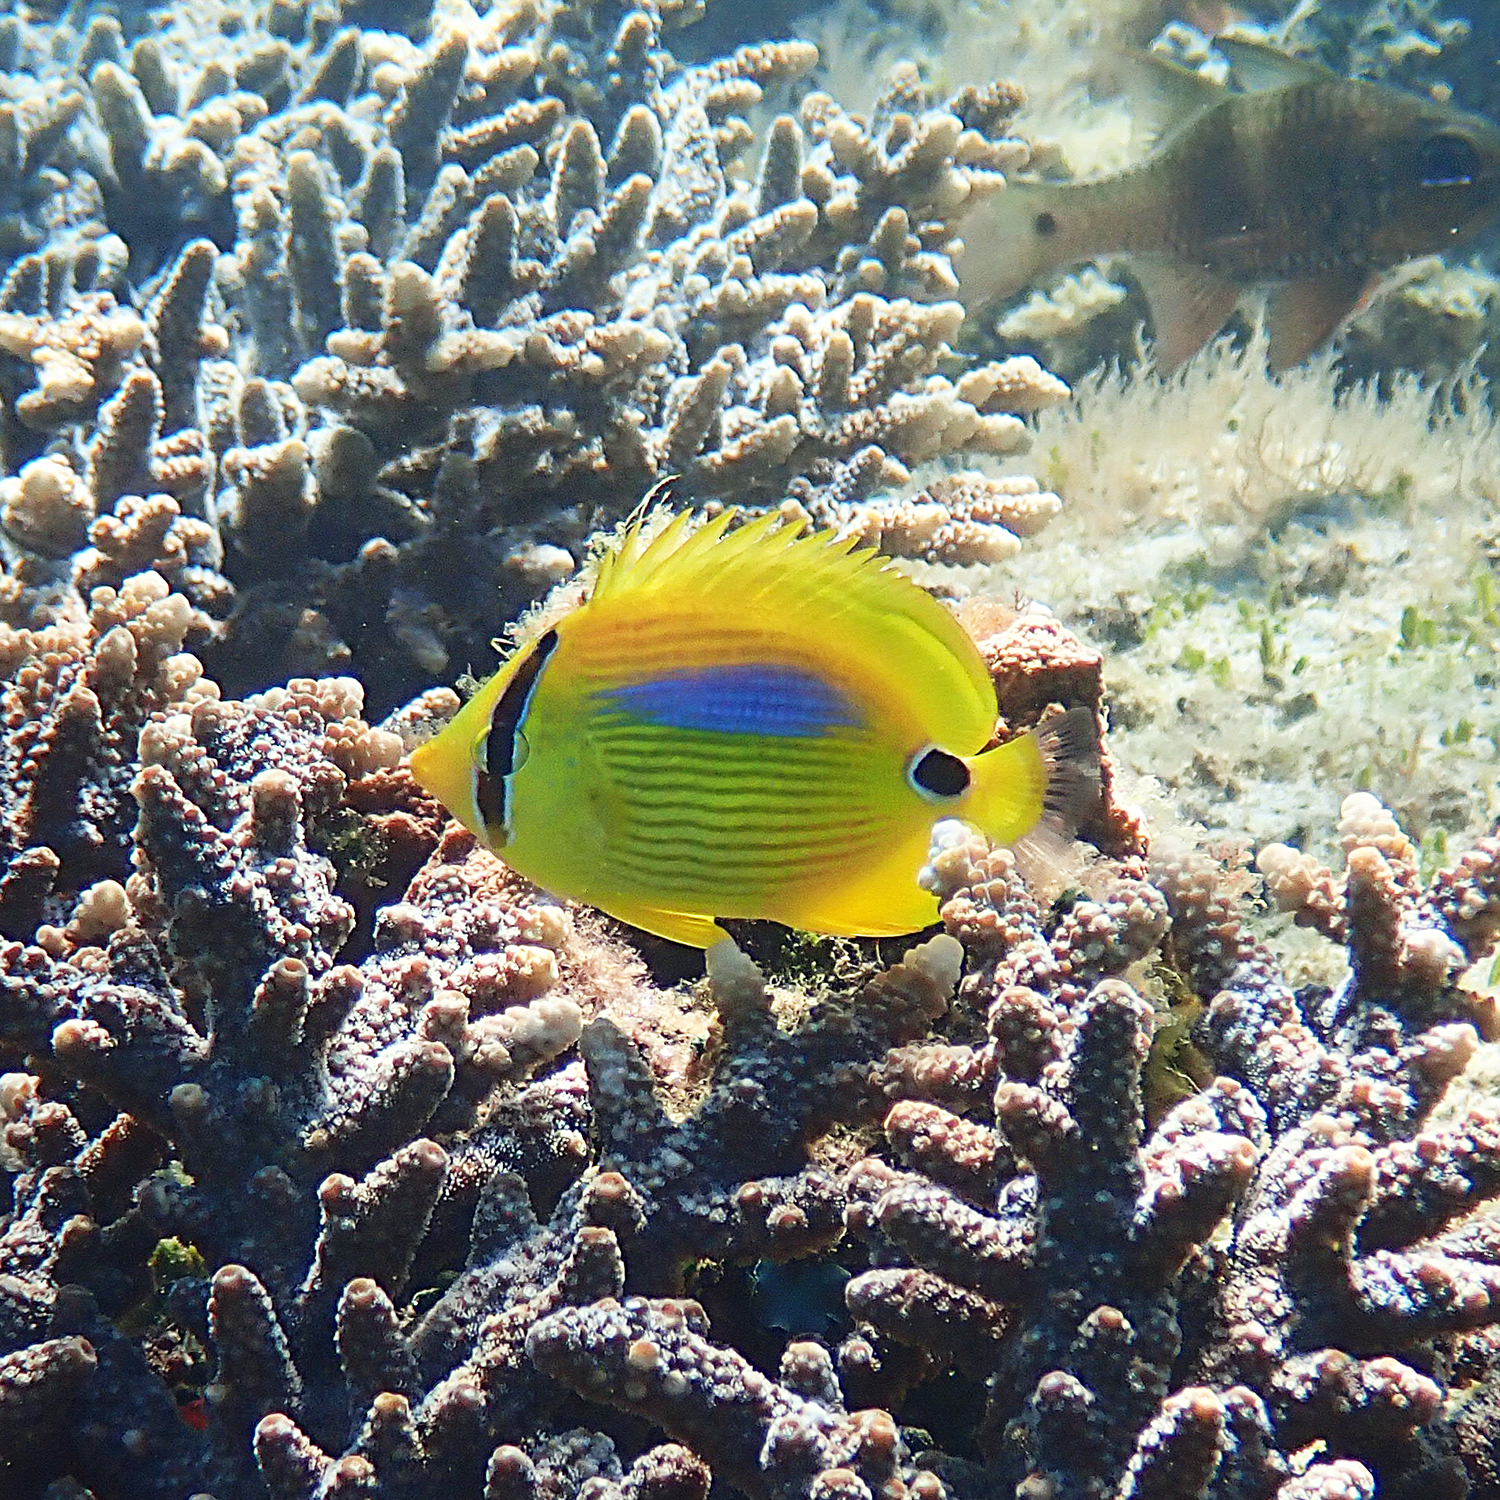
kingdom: Animalia
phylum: Chordata
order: Perciformes
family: Chaetodontidae
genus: Chaetodon
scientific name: Chaetodon plebeius
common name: Bluespot butterflyfish
